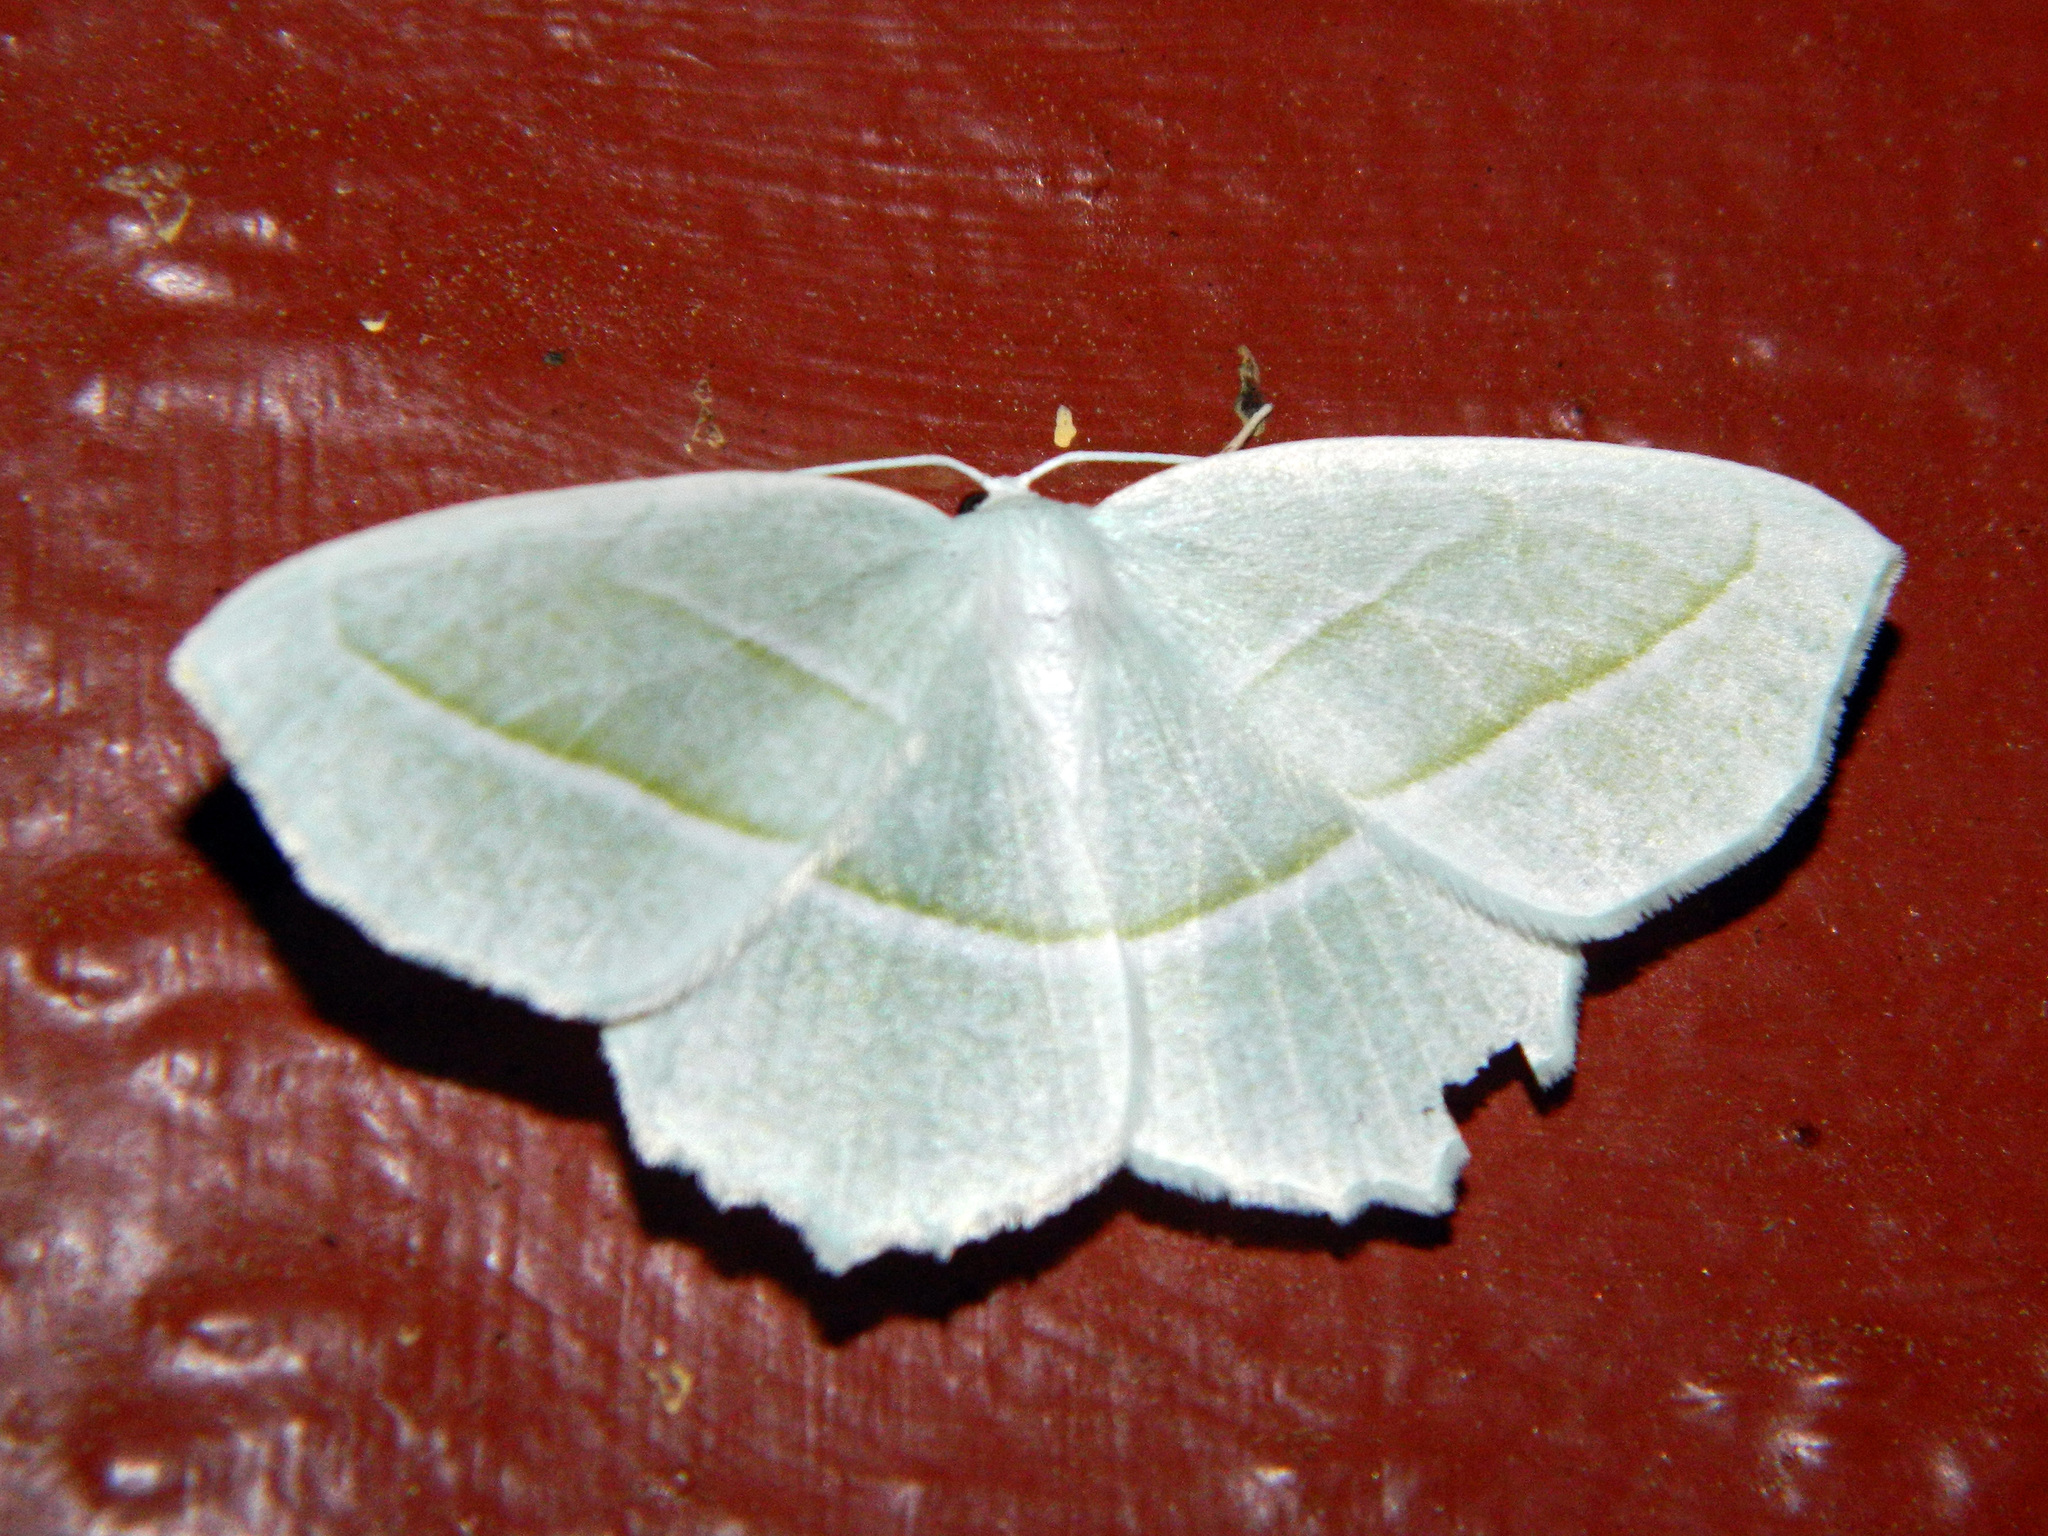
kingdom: Animalia
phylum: Arthropoda
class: Insecta
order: Lepidoptera
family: Geometridae
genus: Campaea
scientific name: Campaea perlata
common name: Fringed looper
